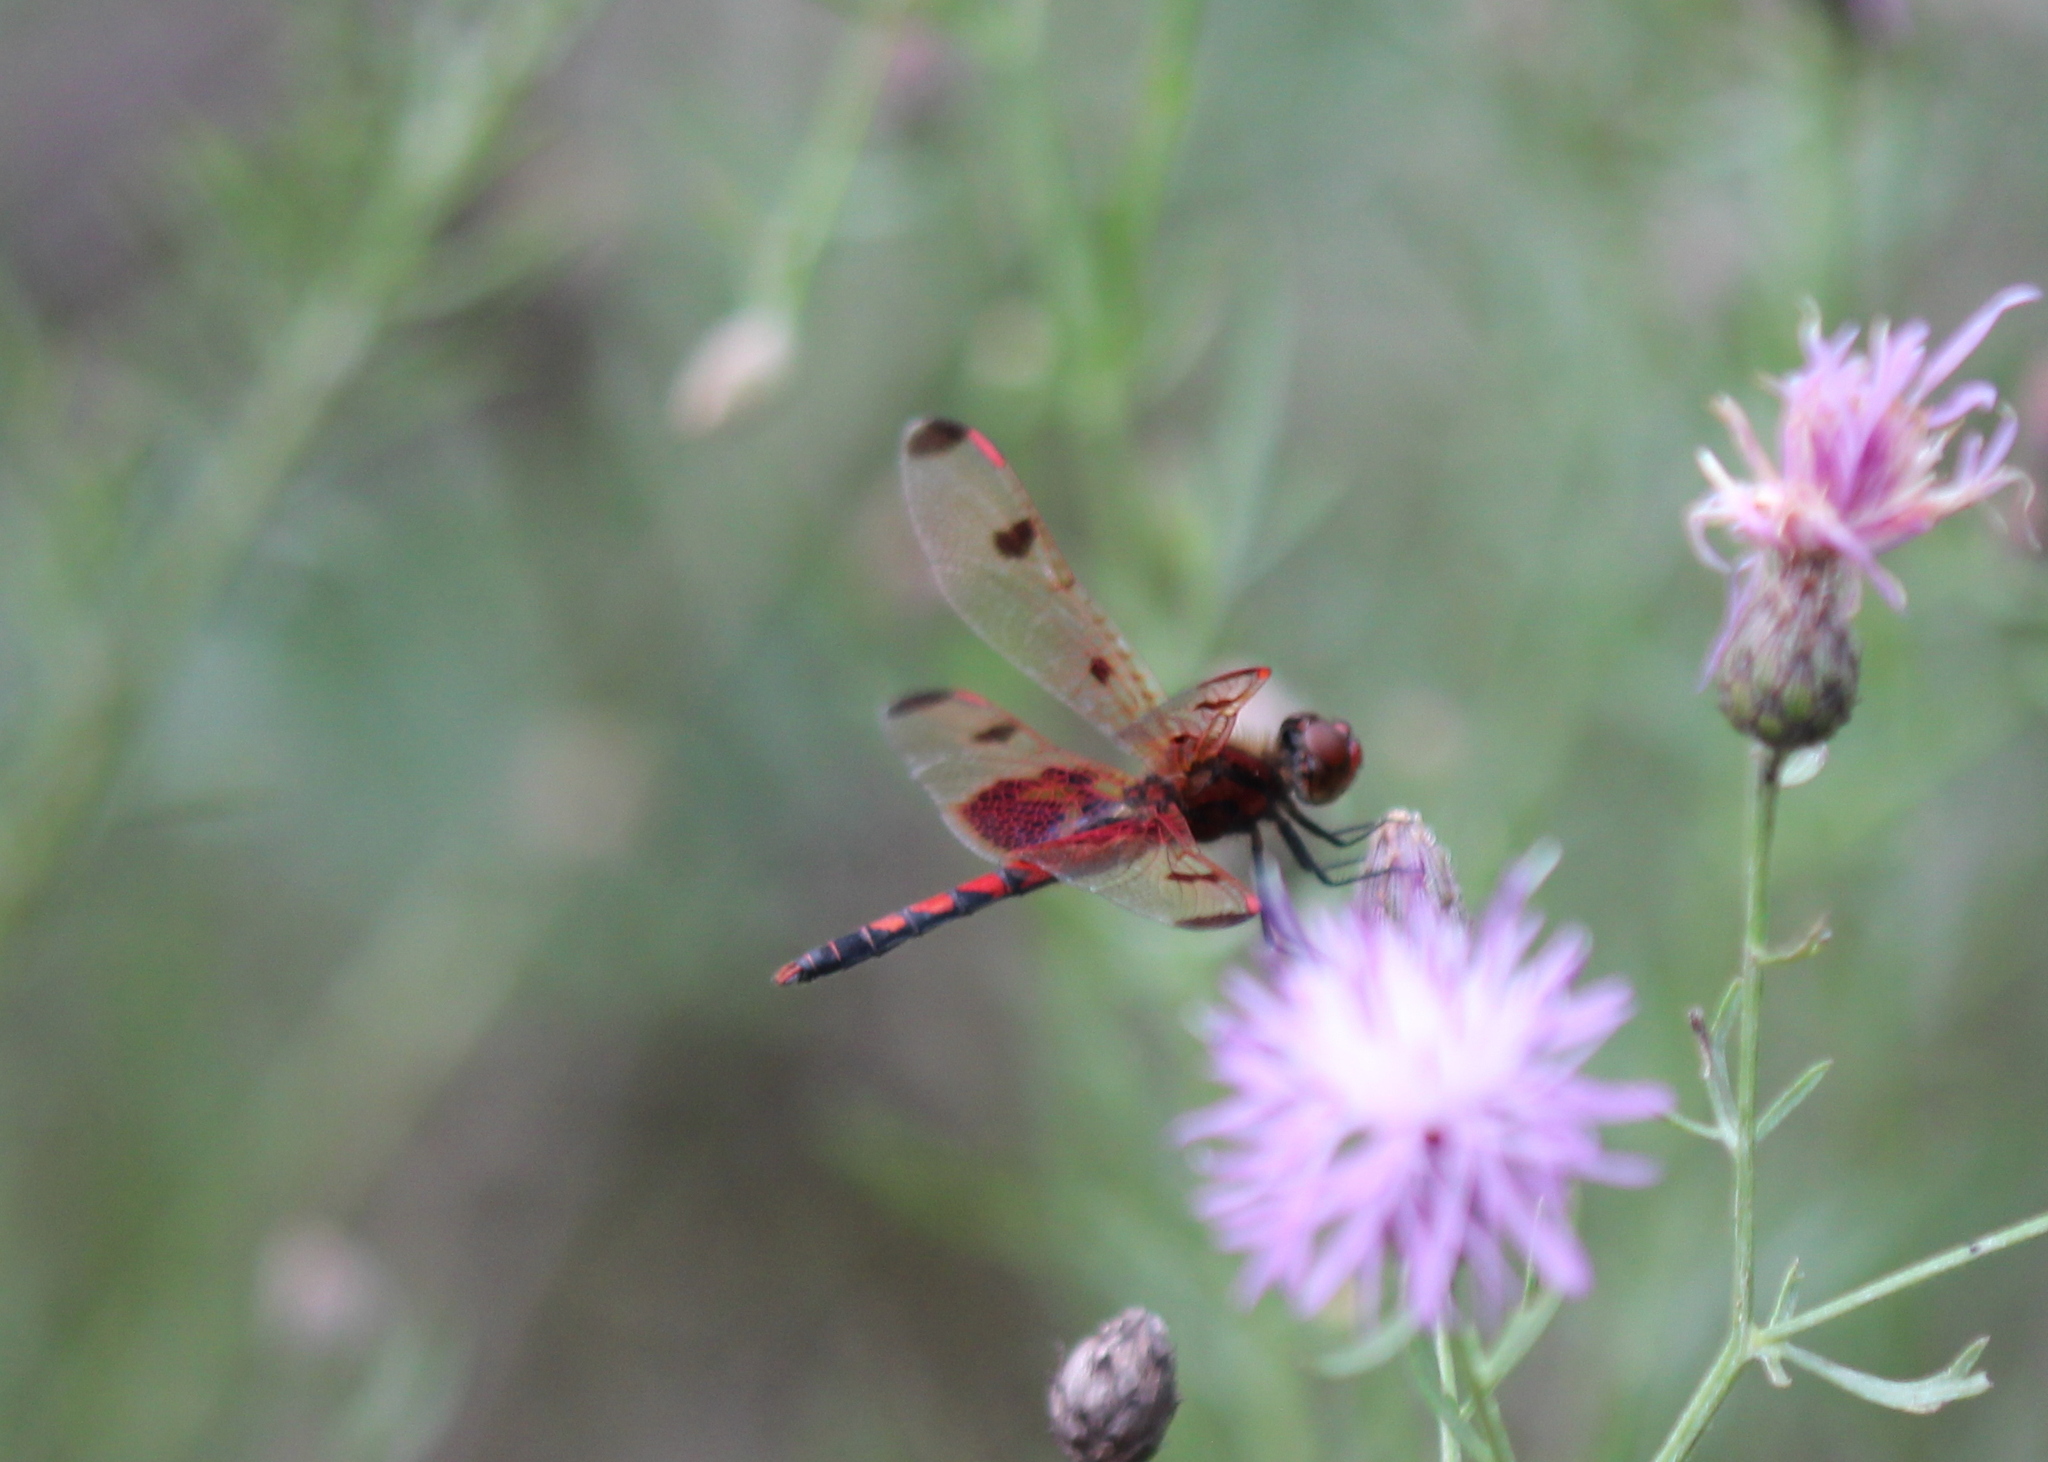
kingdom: Animalia
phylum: Arthropoda
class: Insecta
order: Odonata
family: Libellulidae
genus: Celithemis
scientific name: Celithemis elisa
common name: Calico pennant
